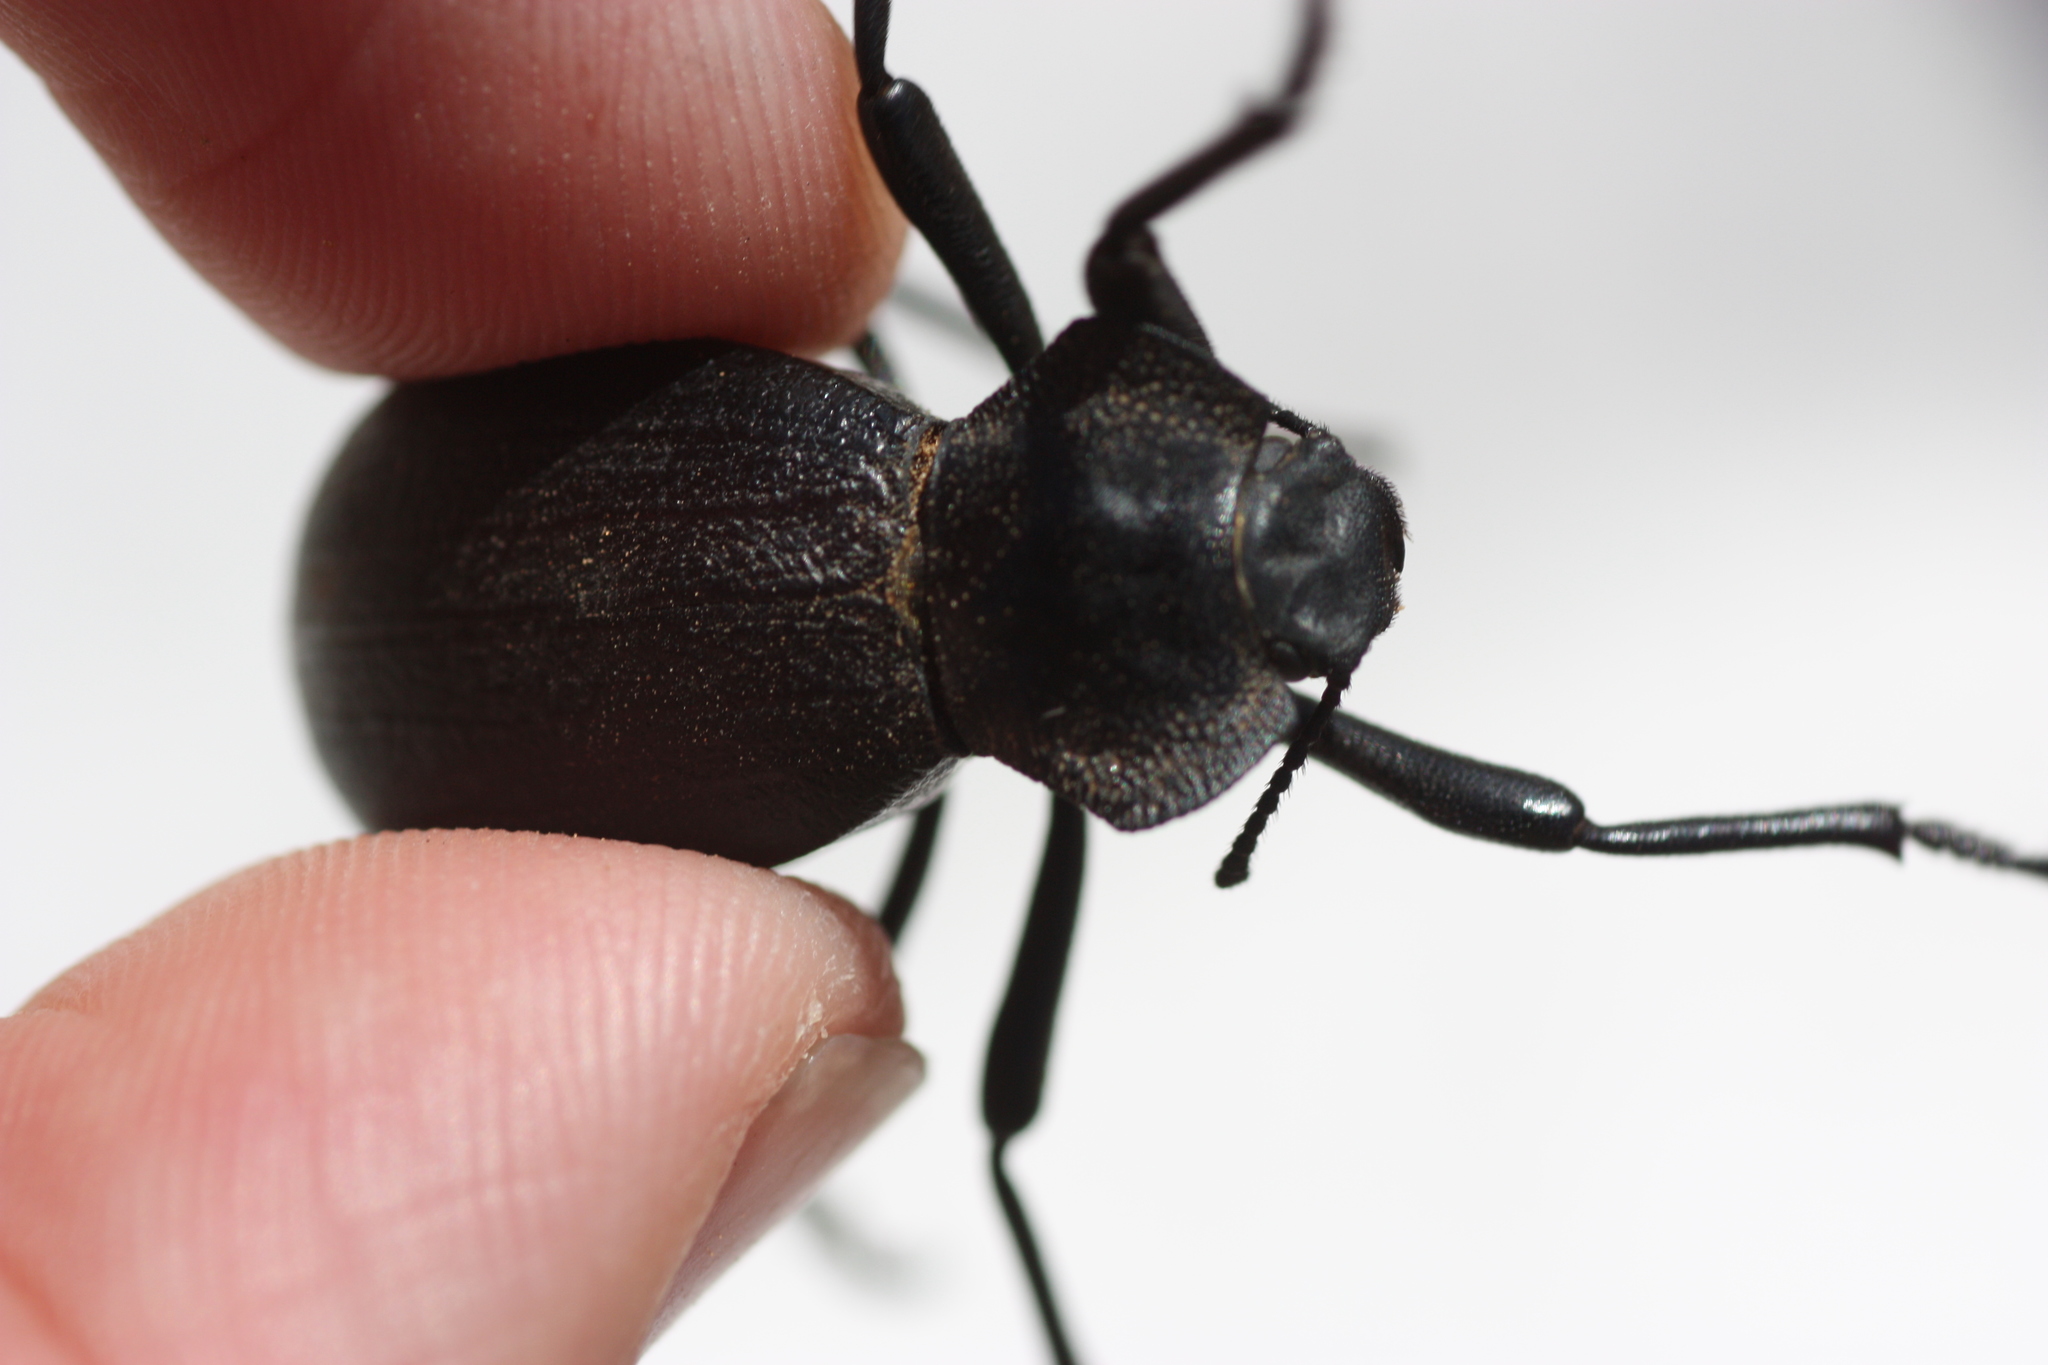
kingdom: Animalia
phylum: Arthropoda
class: Insecta
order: Coleoptera
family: Tenebrionidae
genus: Philolithus
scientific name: Philolithus elatus
